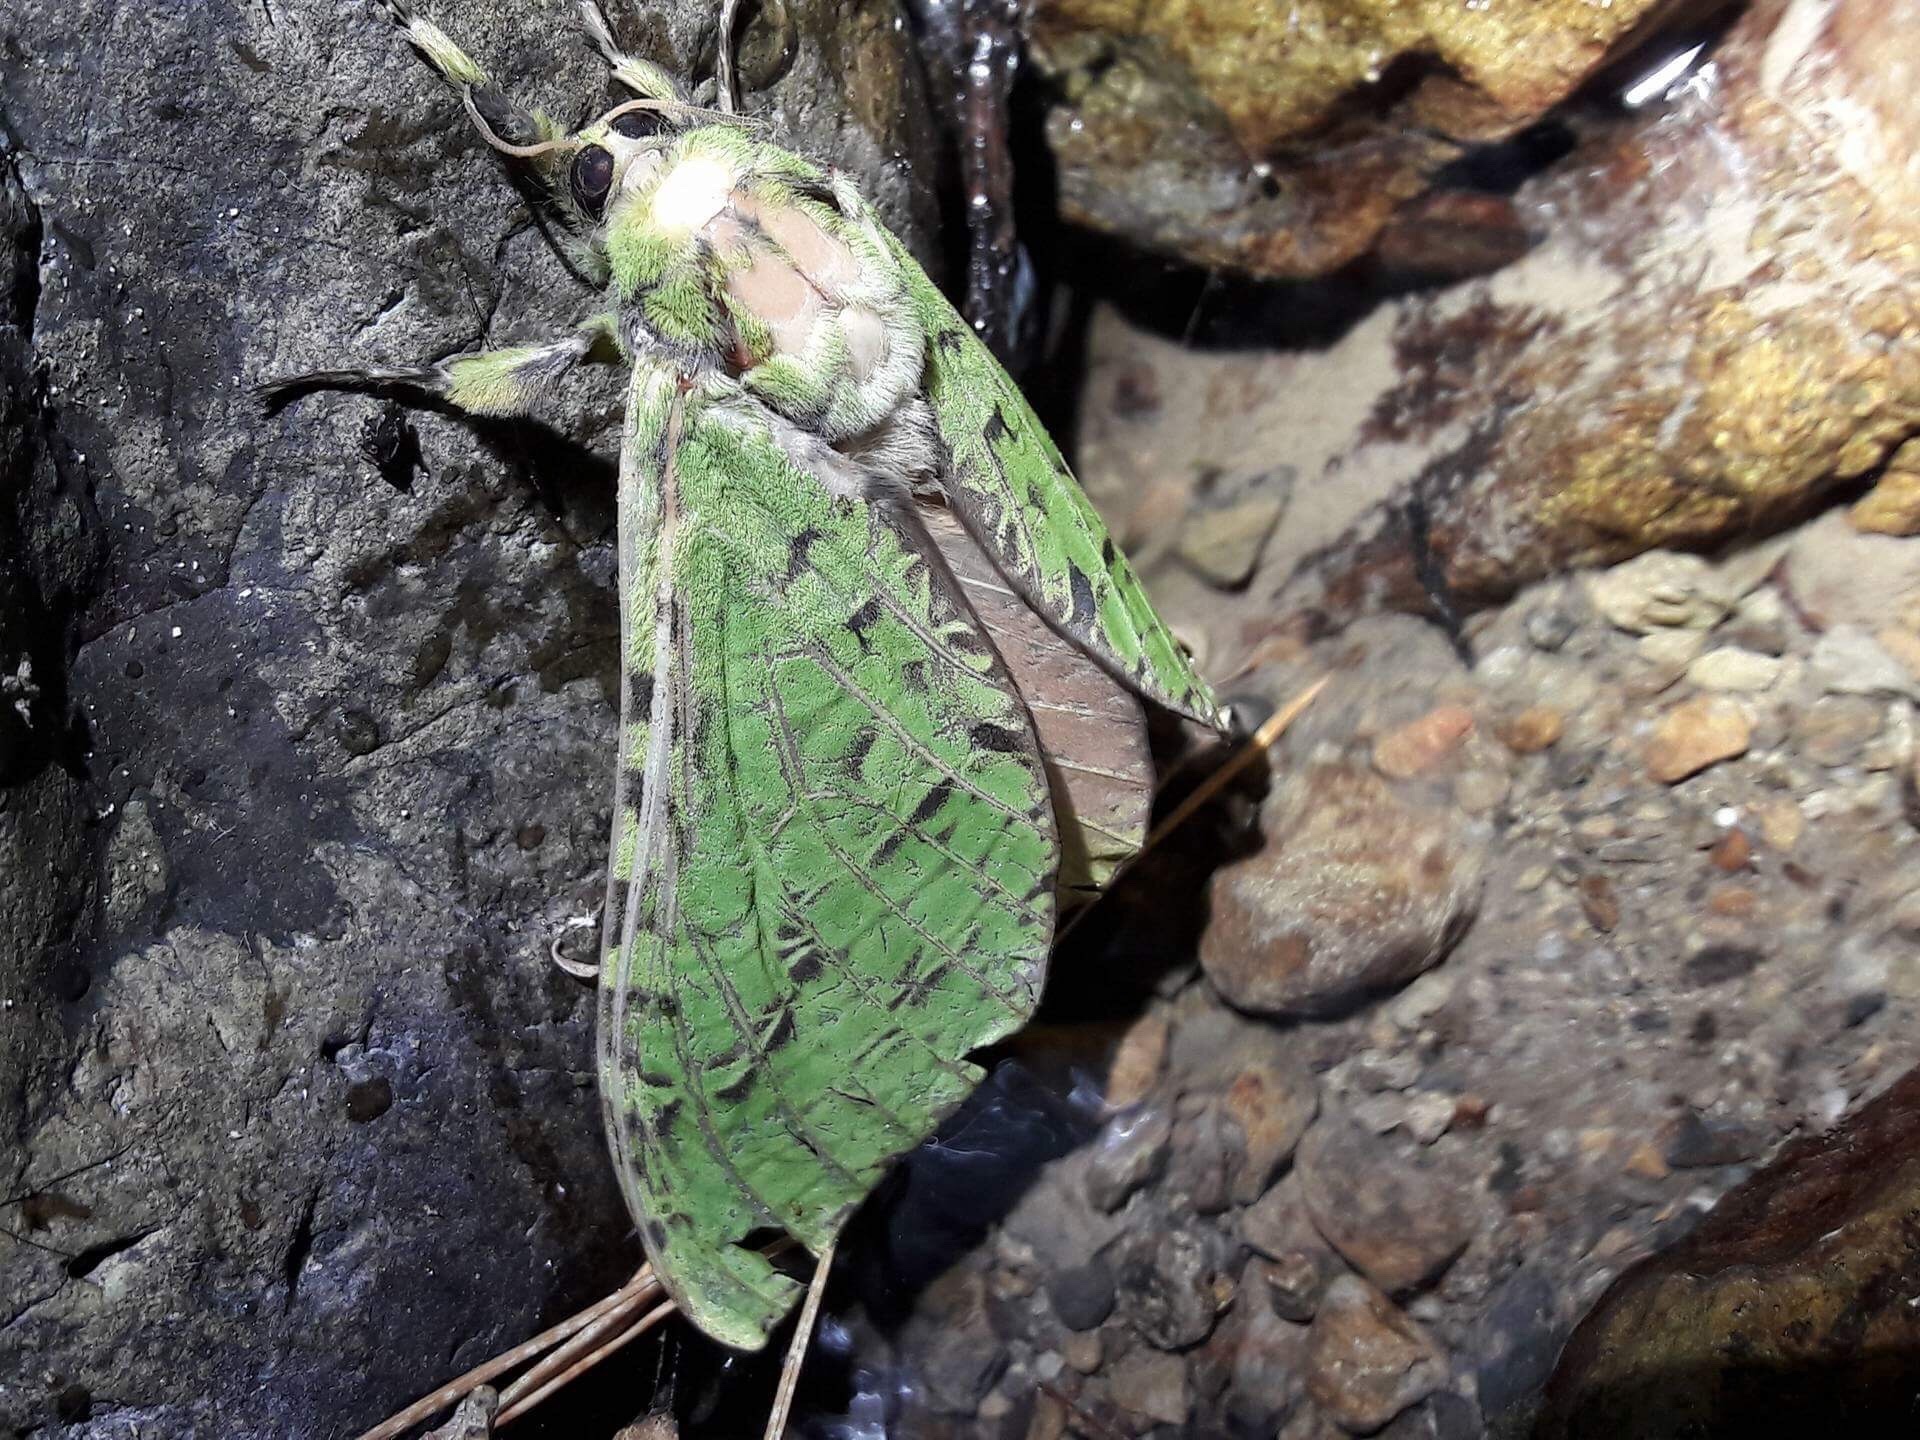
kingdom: Animalia
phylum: Arthropoda
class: Insecta
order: Lepidoptera
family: Hepialidae
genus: Aenetus
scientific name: Aenetus virescens
